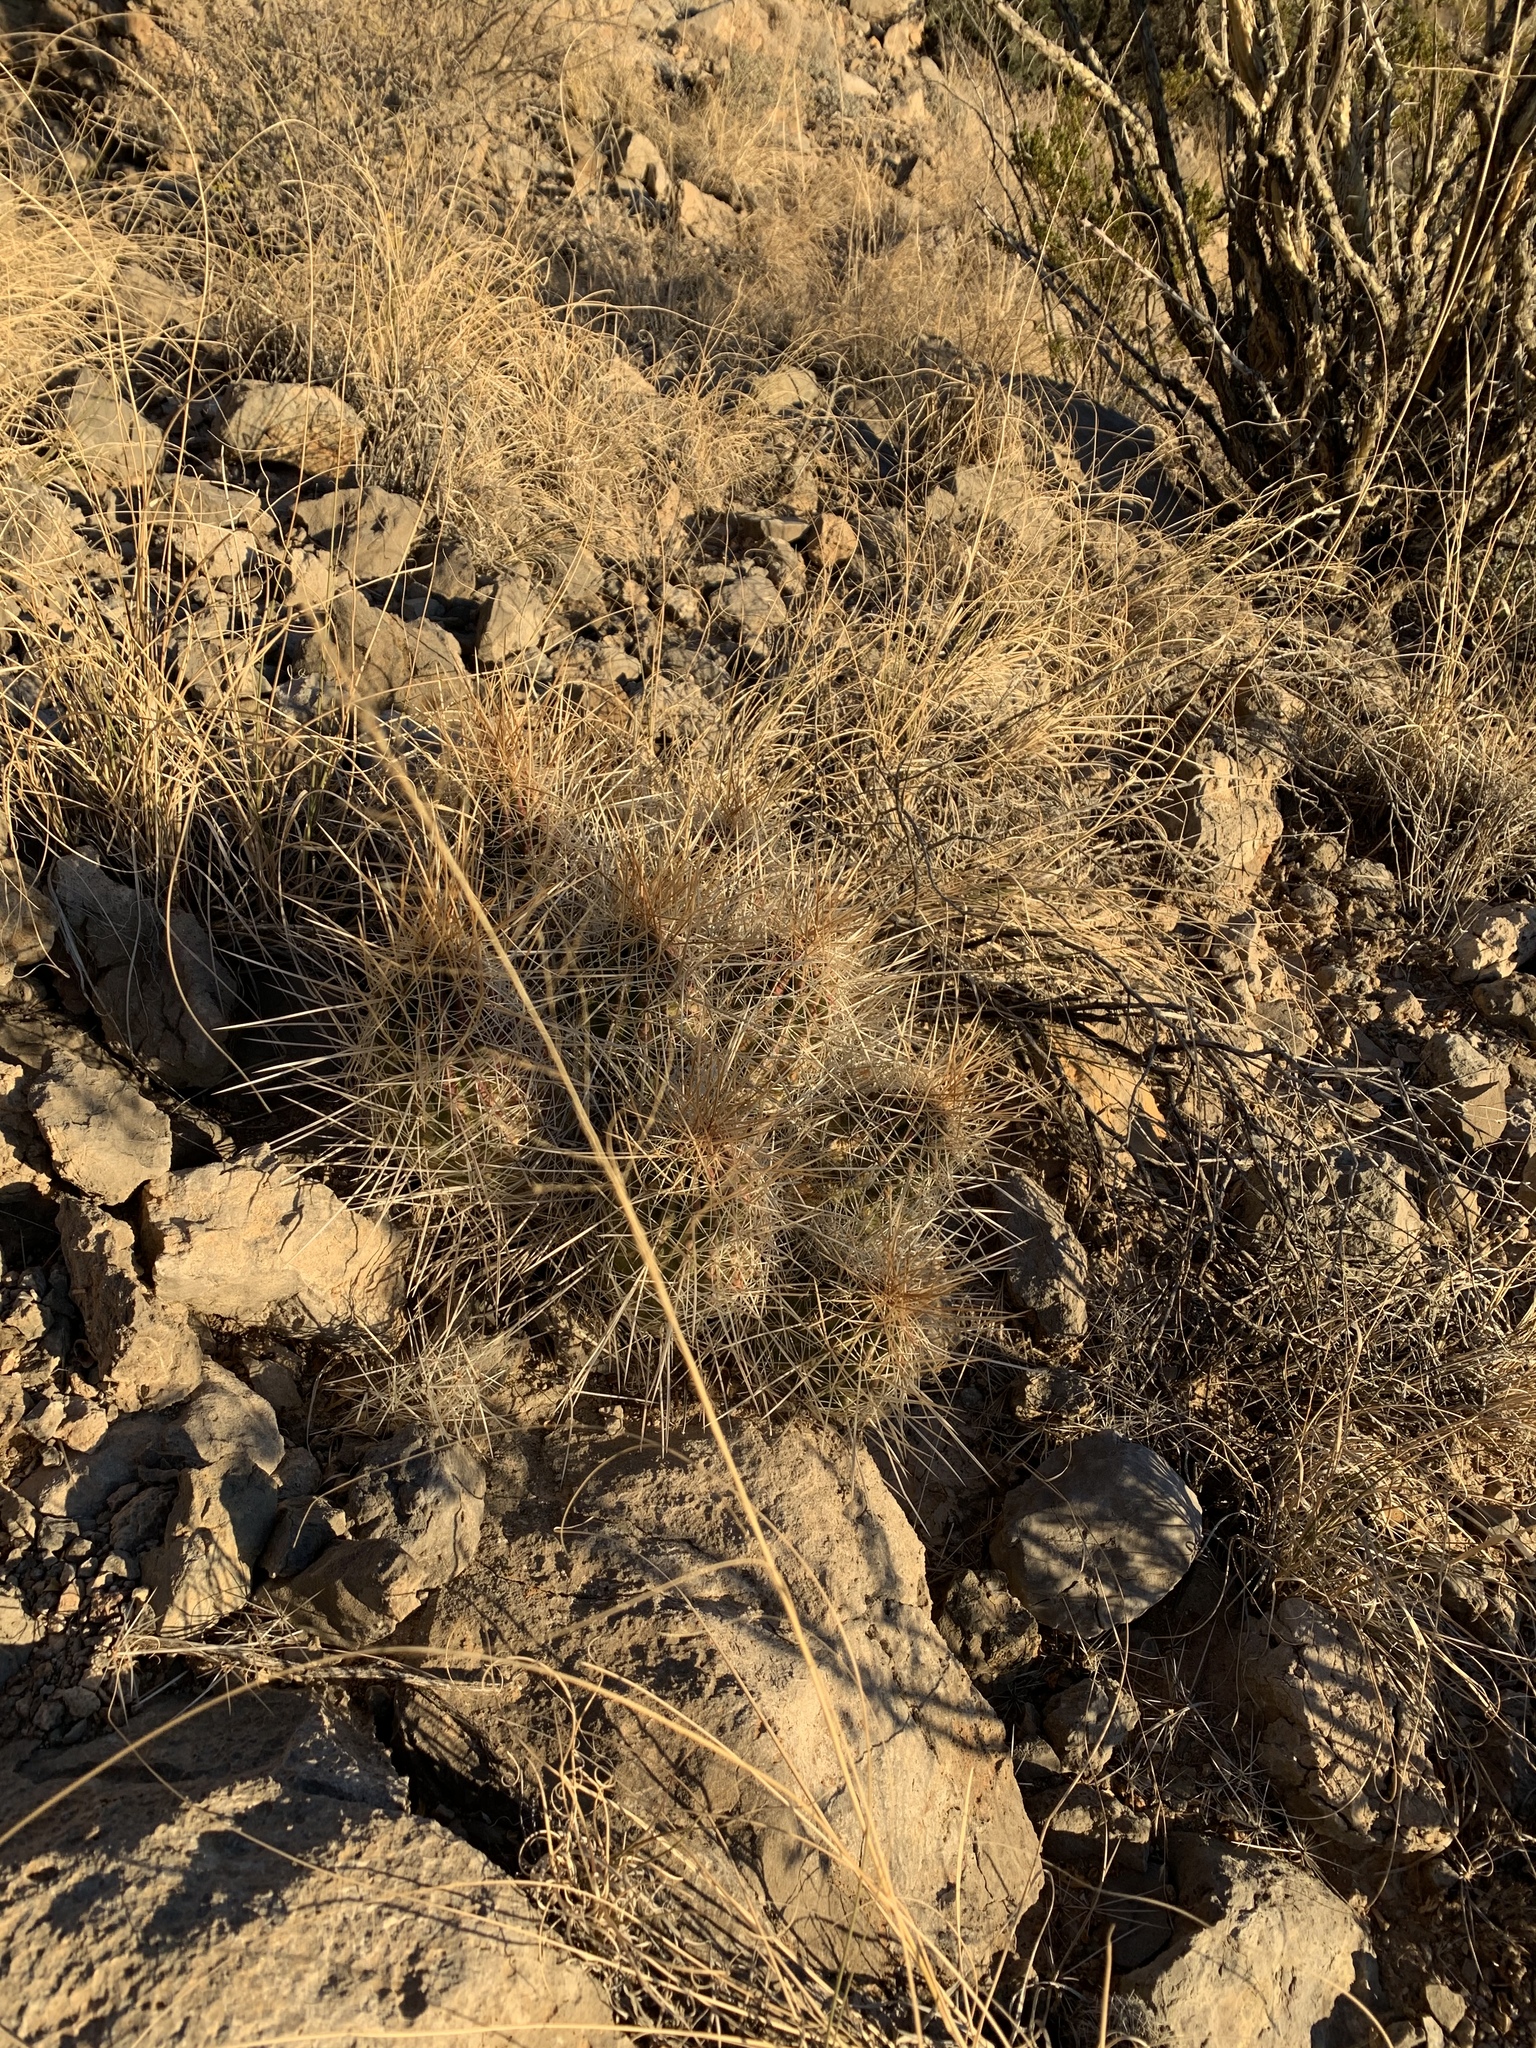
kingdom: Plantae
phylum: Tracheophyta
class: Magnoliopsida
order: Caryophyllales
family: Cactaceae
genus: Echinocereus
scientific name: Echinocereus stramineus
